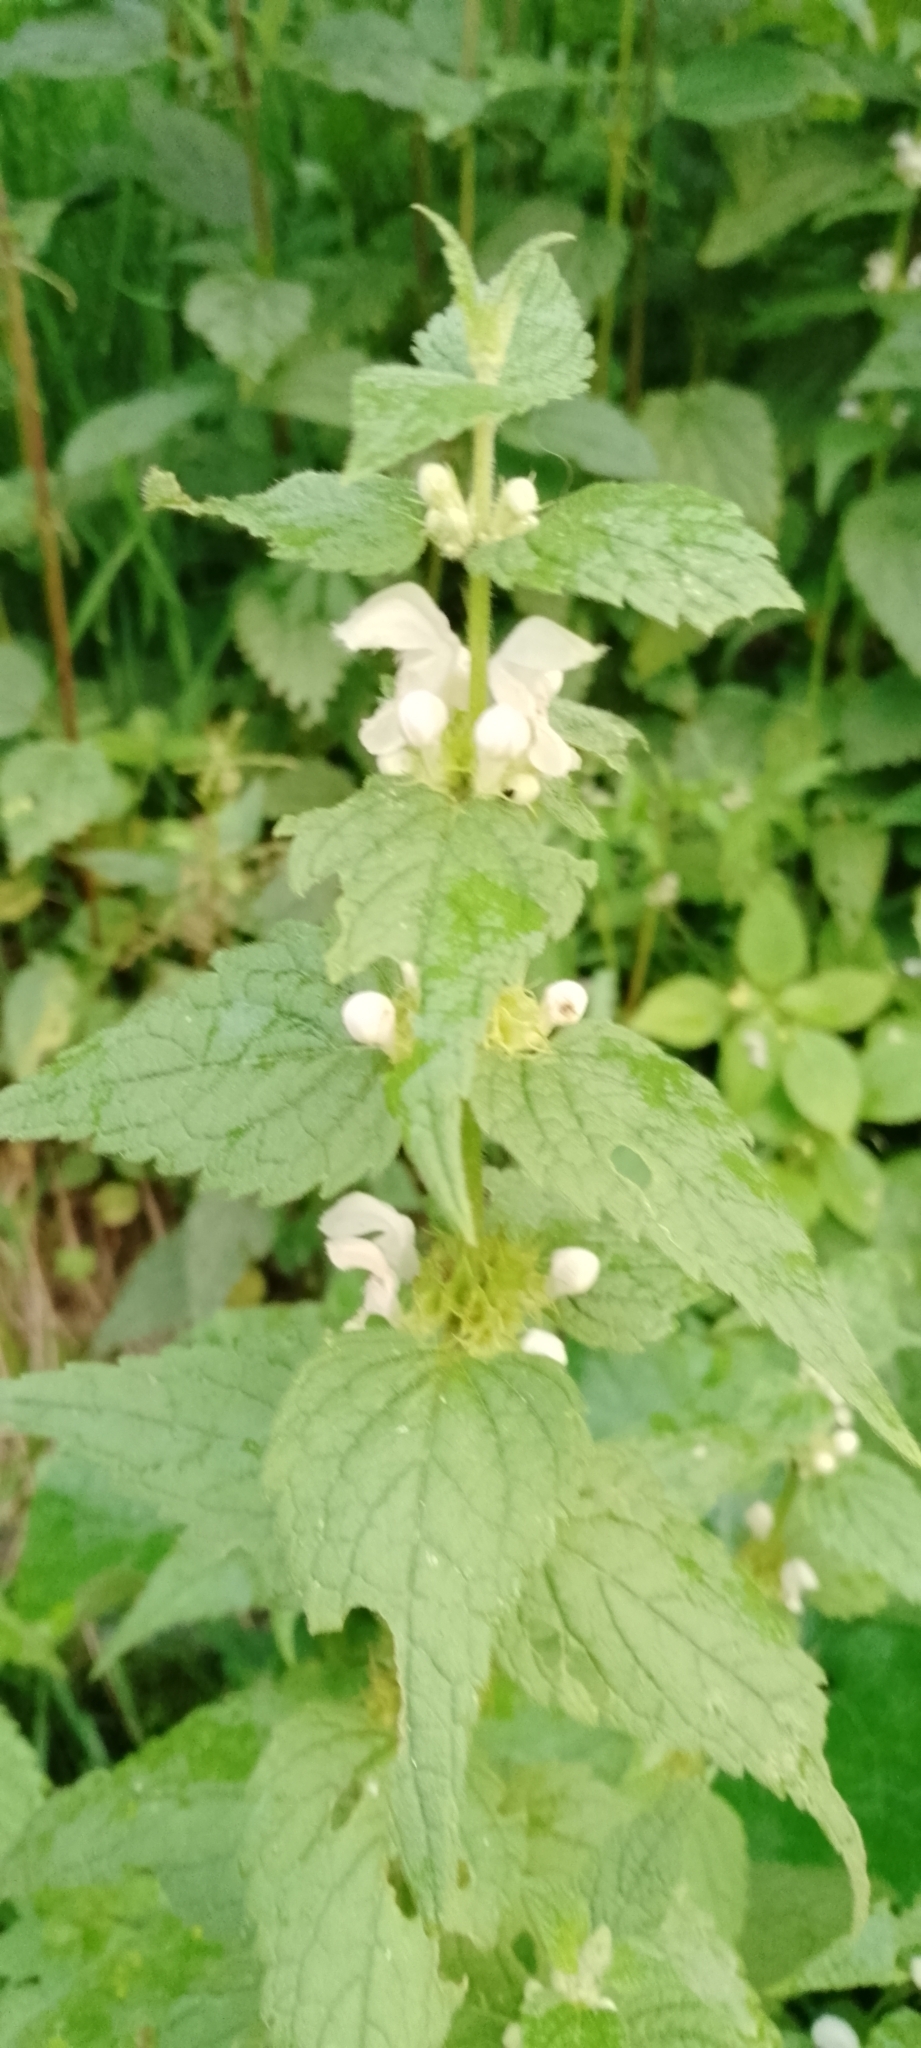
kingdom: Plantae
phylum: Tracheophyta
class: Magnoliopsida
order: Lamiales
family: Lamiaceae
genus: Lamium
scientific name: Lamium album
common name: White dead-nettle
